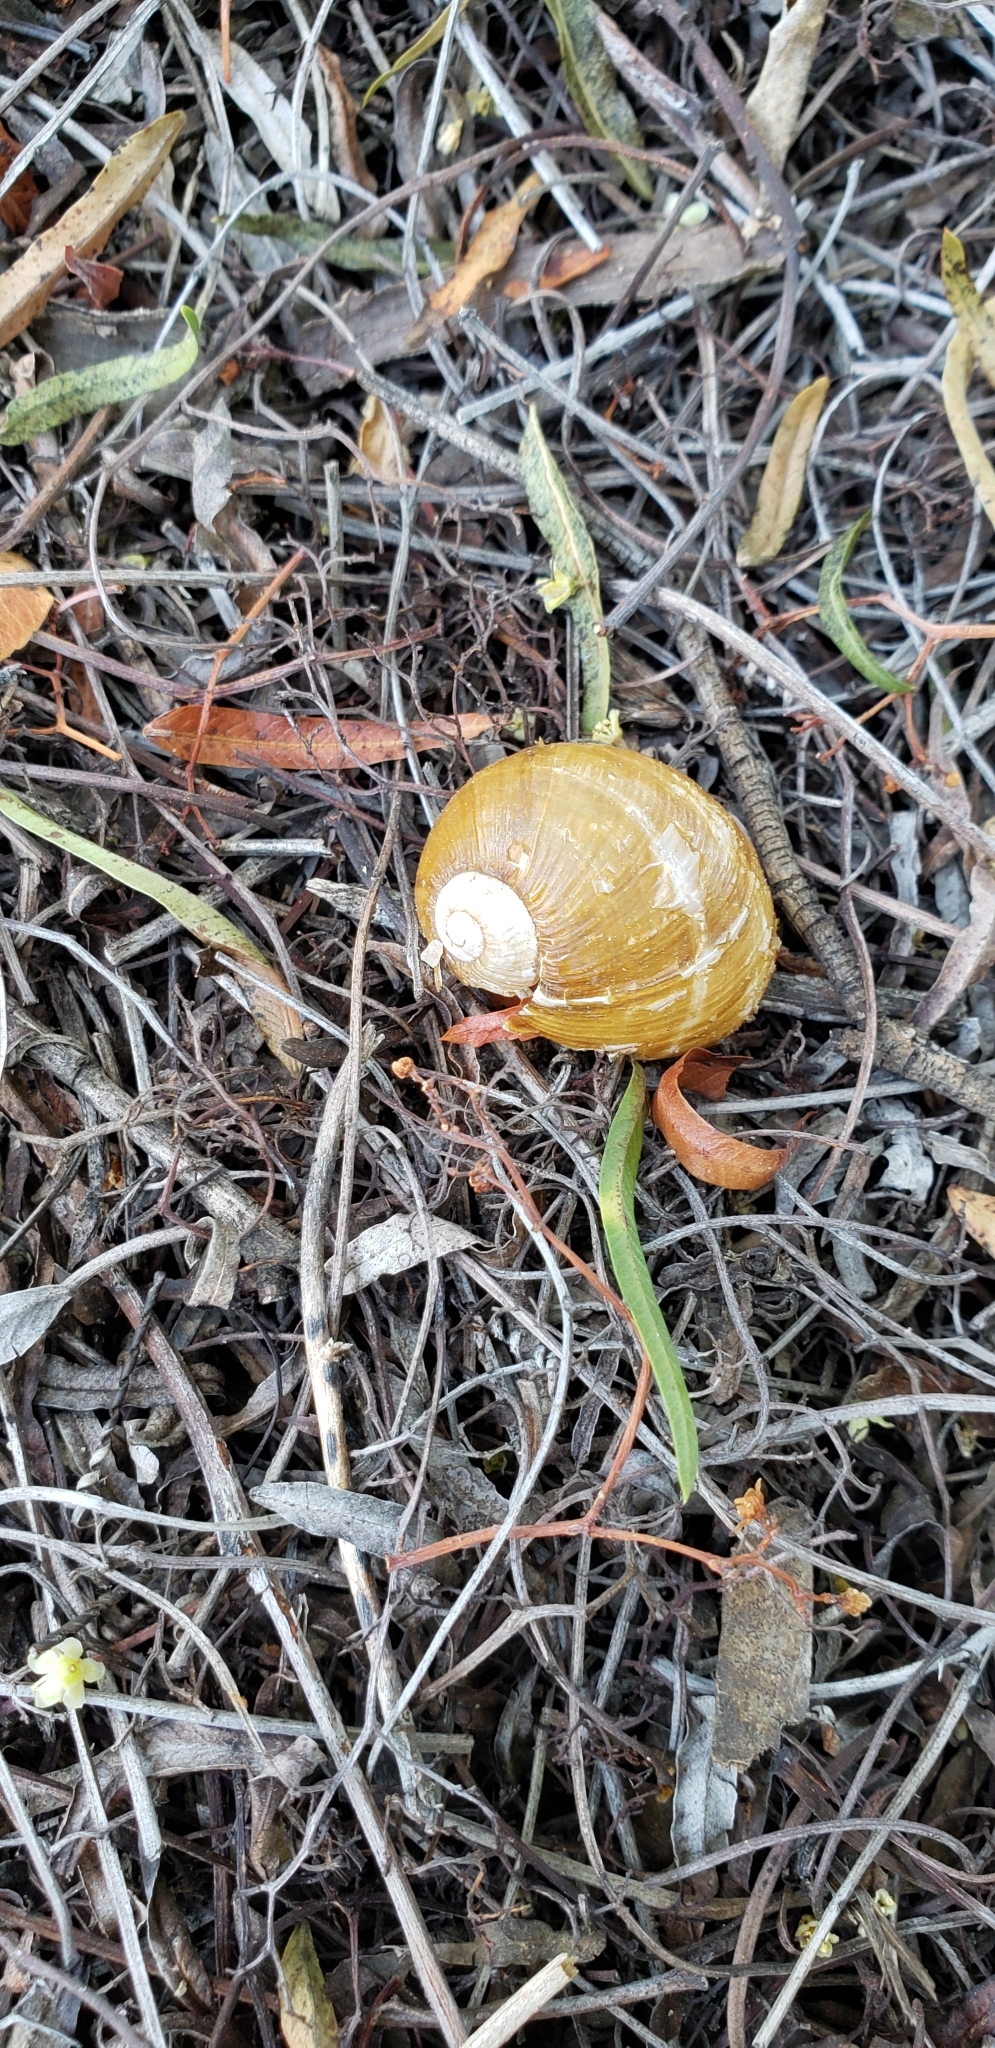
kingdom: Animalia
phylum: Mollusca
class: Gastropoda
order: Stylommatophora
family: Helicidae
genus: Cantareus
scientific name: Cantareus apertus
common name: Green gardensnail
